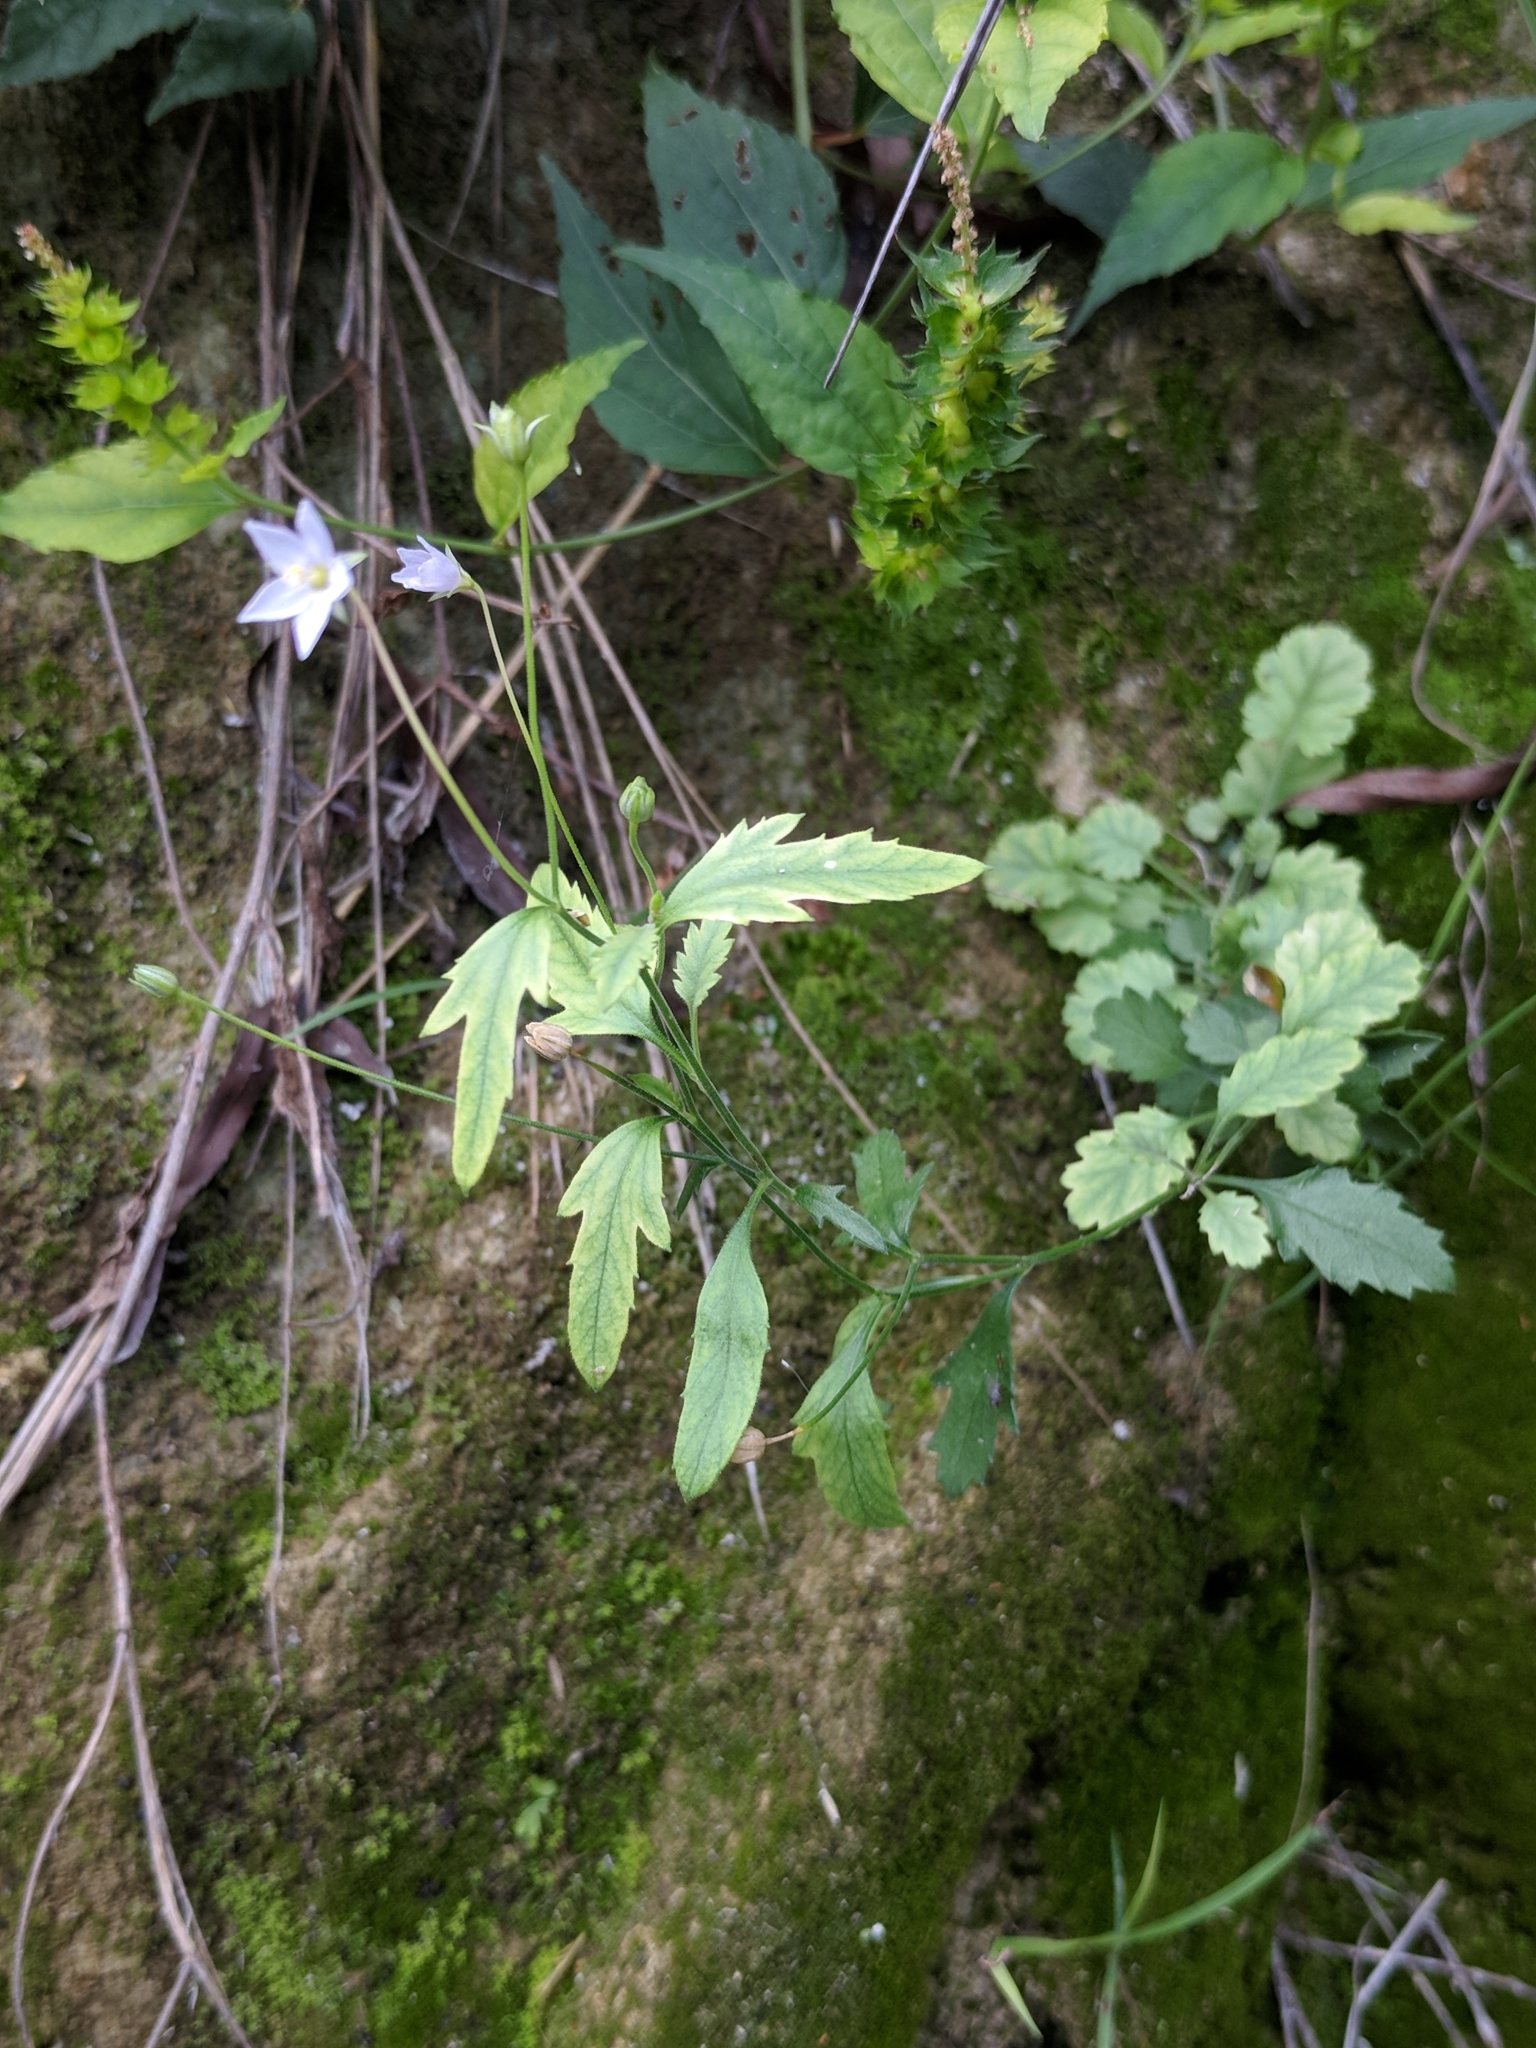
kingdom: Plantae
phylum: Tracheophyta
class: Magnoliopsida
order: Ericales
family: Polemoniaceae
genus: Giliastrum
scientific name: Giliastrum incisum
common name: Splitleaf gilia
